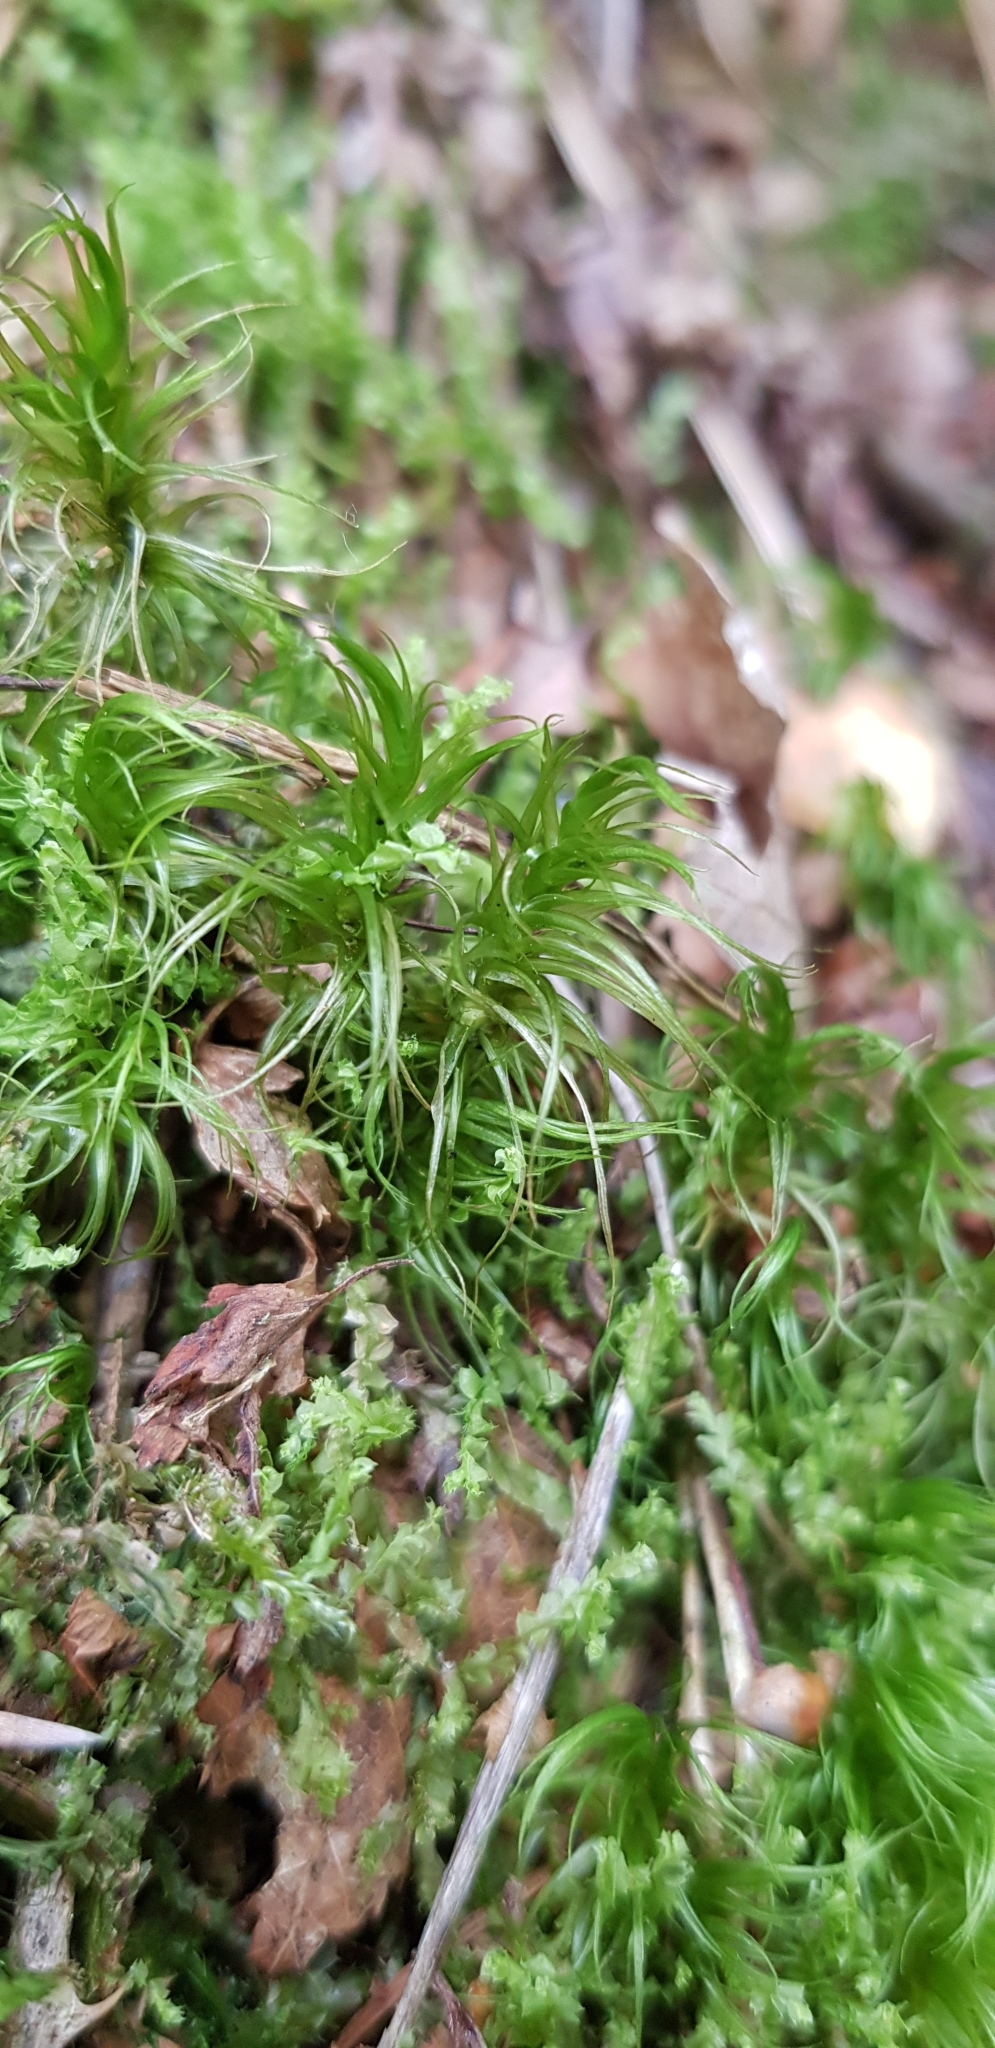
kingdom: Plantae
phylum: Bryophyta
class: Bryopsida
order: Dicranales
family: Dicranaceae
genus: Dicranum
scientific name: Dicranum majus
